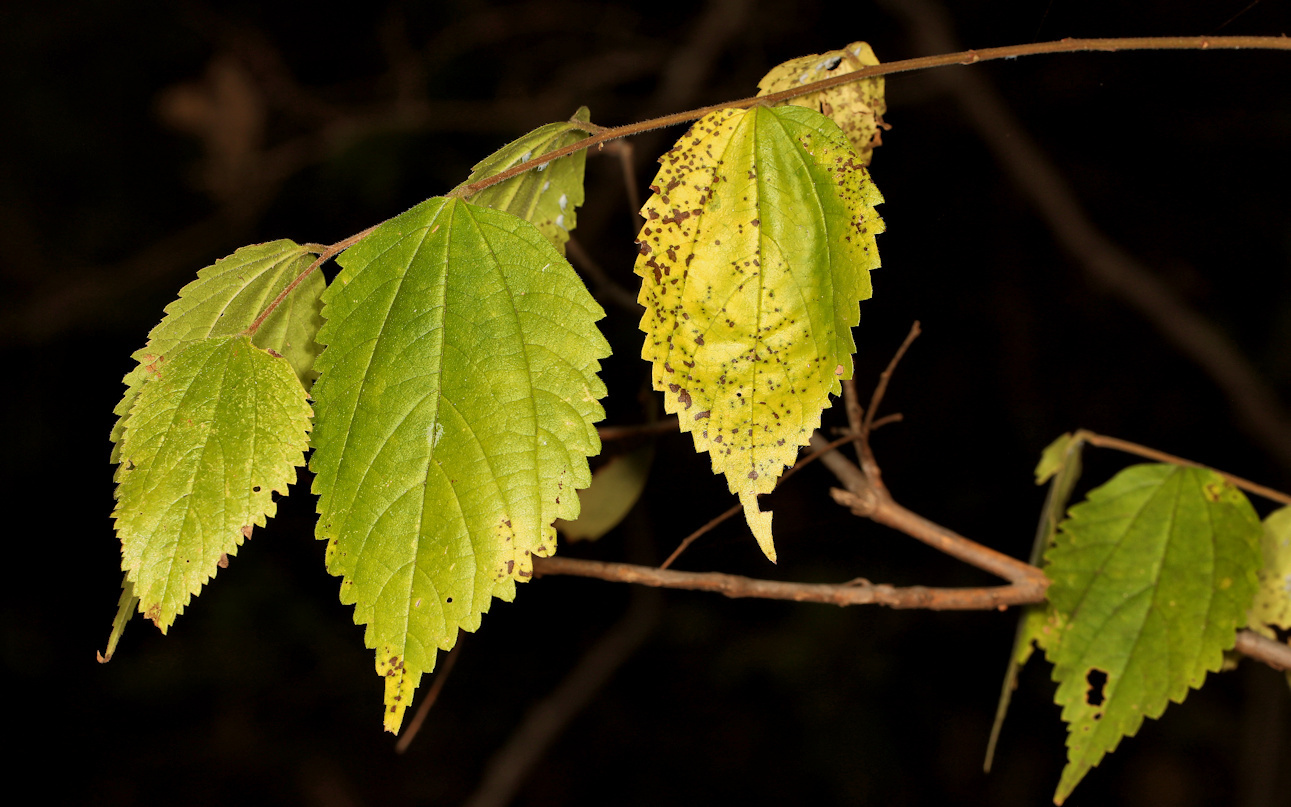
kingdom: Plantae
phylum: Tracheophyta
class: Magnoliopsida
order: Rosales
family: Cannabaceae
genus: Celtis
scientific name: Celtis africana
